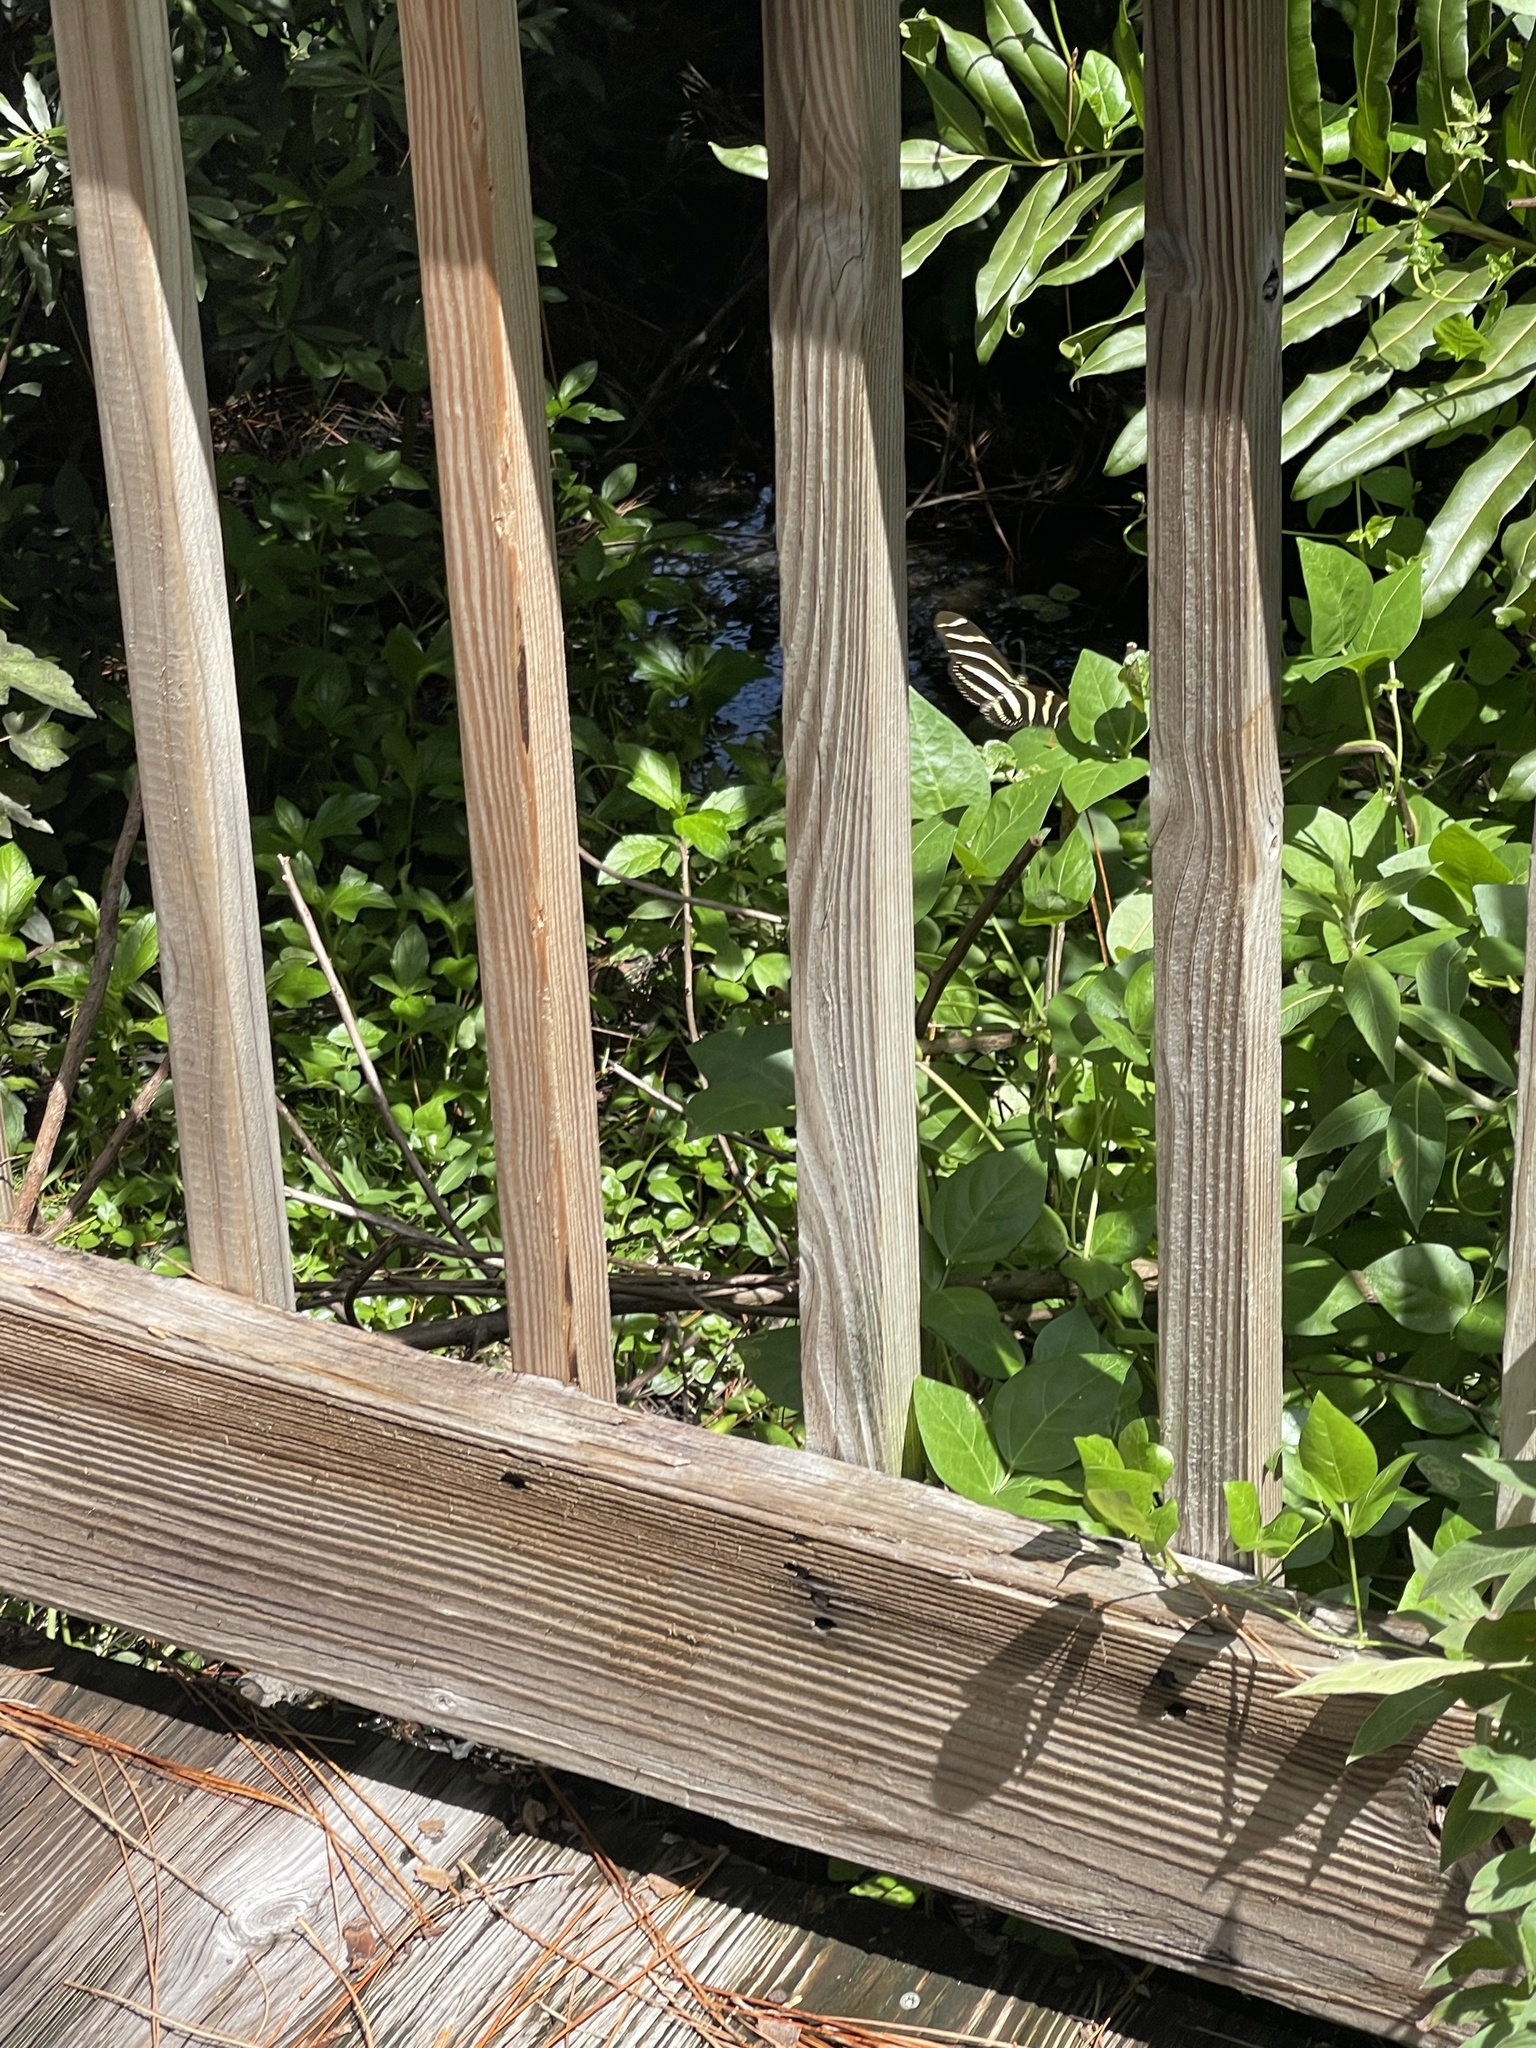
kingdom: Animalia
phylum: Arthropoda
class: Insecta
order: Lepidoptera
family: Nymphalidae
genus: Heliconius
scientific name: Heliconius charithonia
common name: Zebra long wing
